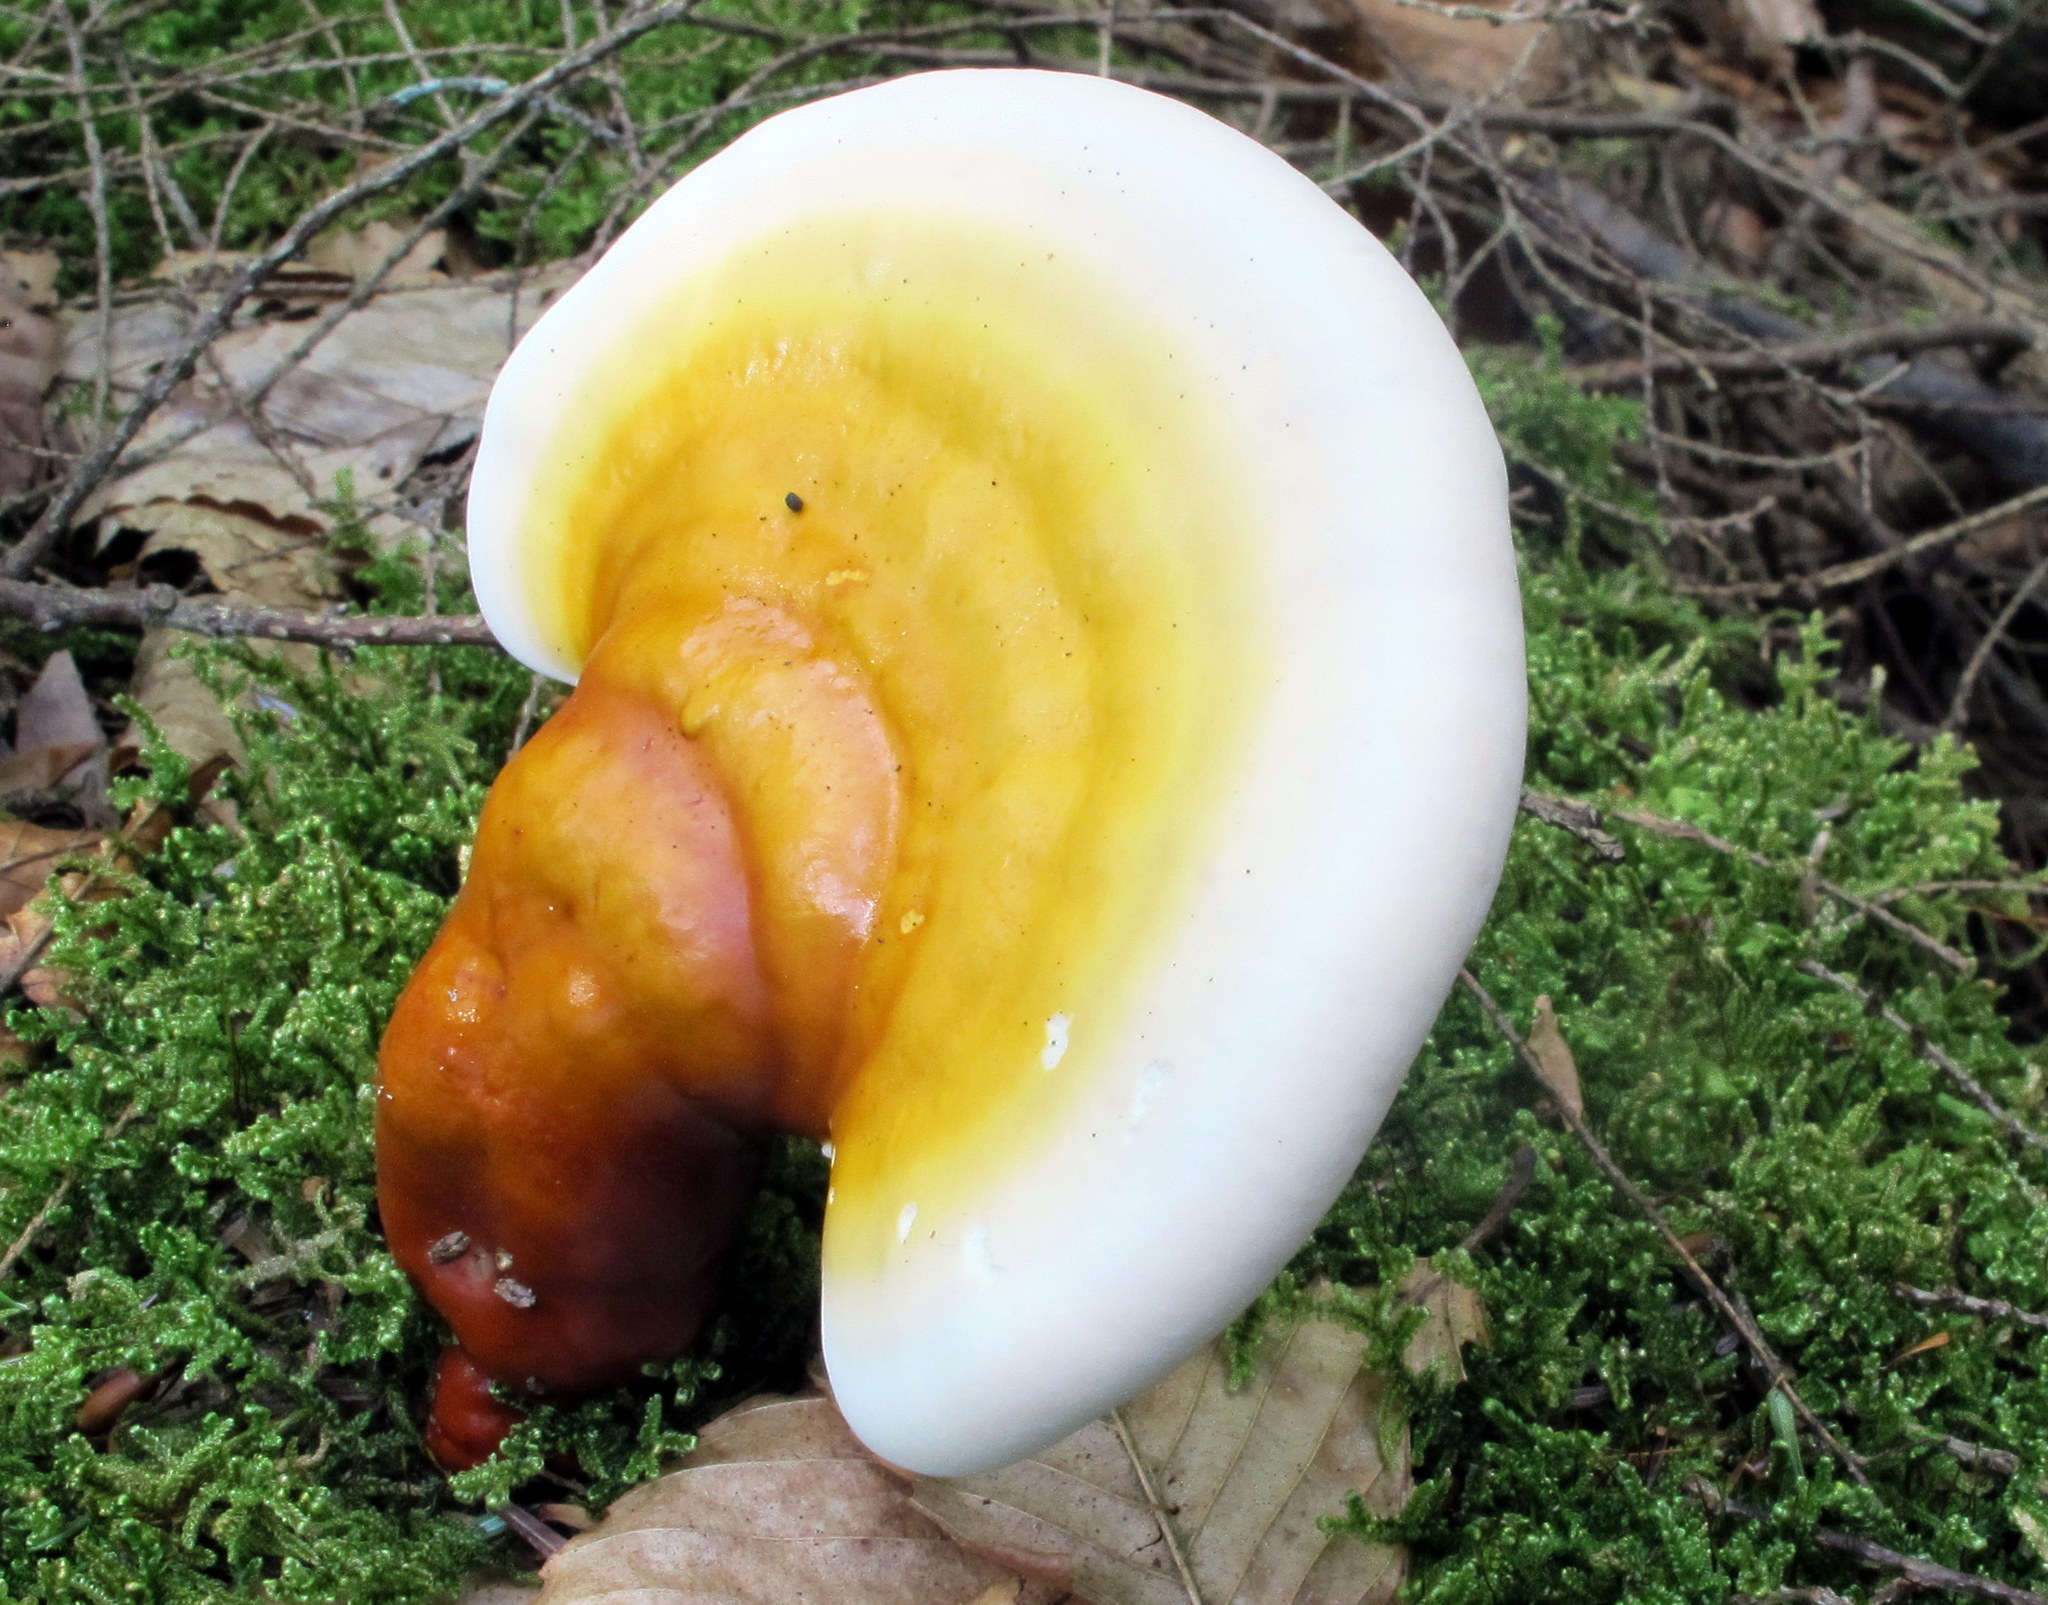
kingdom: Fungi
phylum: Basidiomycota
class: Agaricomycetes
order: Polyporales
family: Polyporaceae
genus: Ganoderma
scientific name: Ganoderma tsugae
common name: Hemlock varnish shelf
